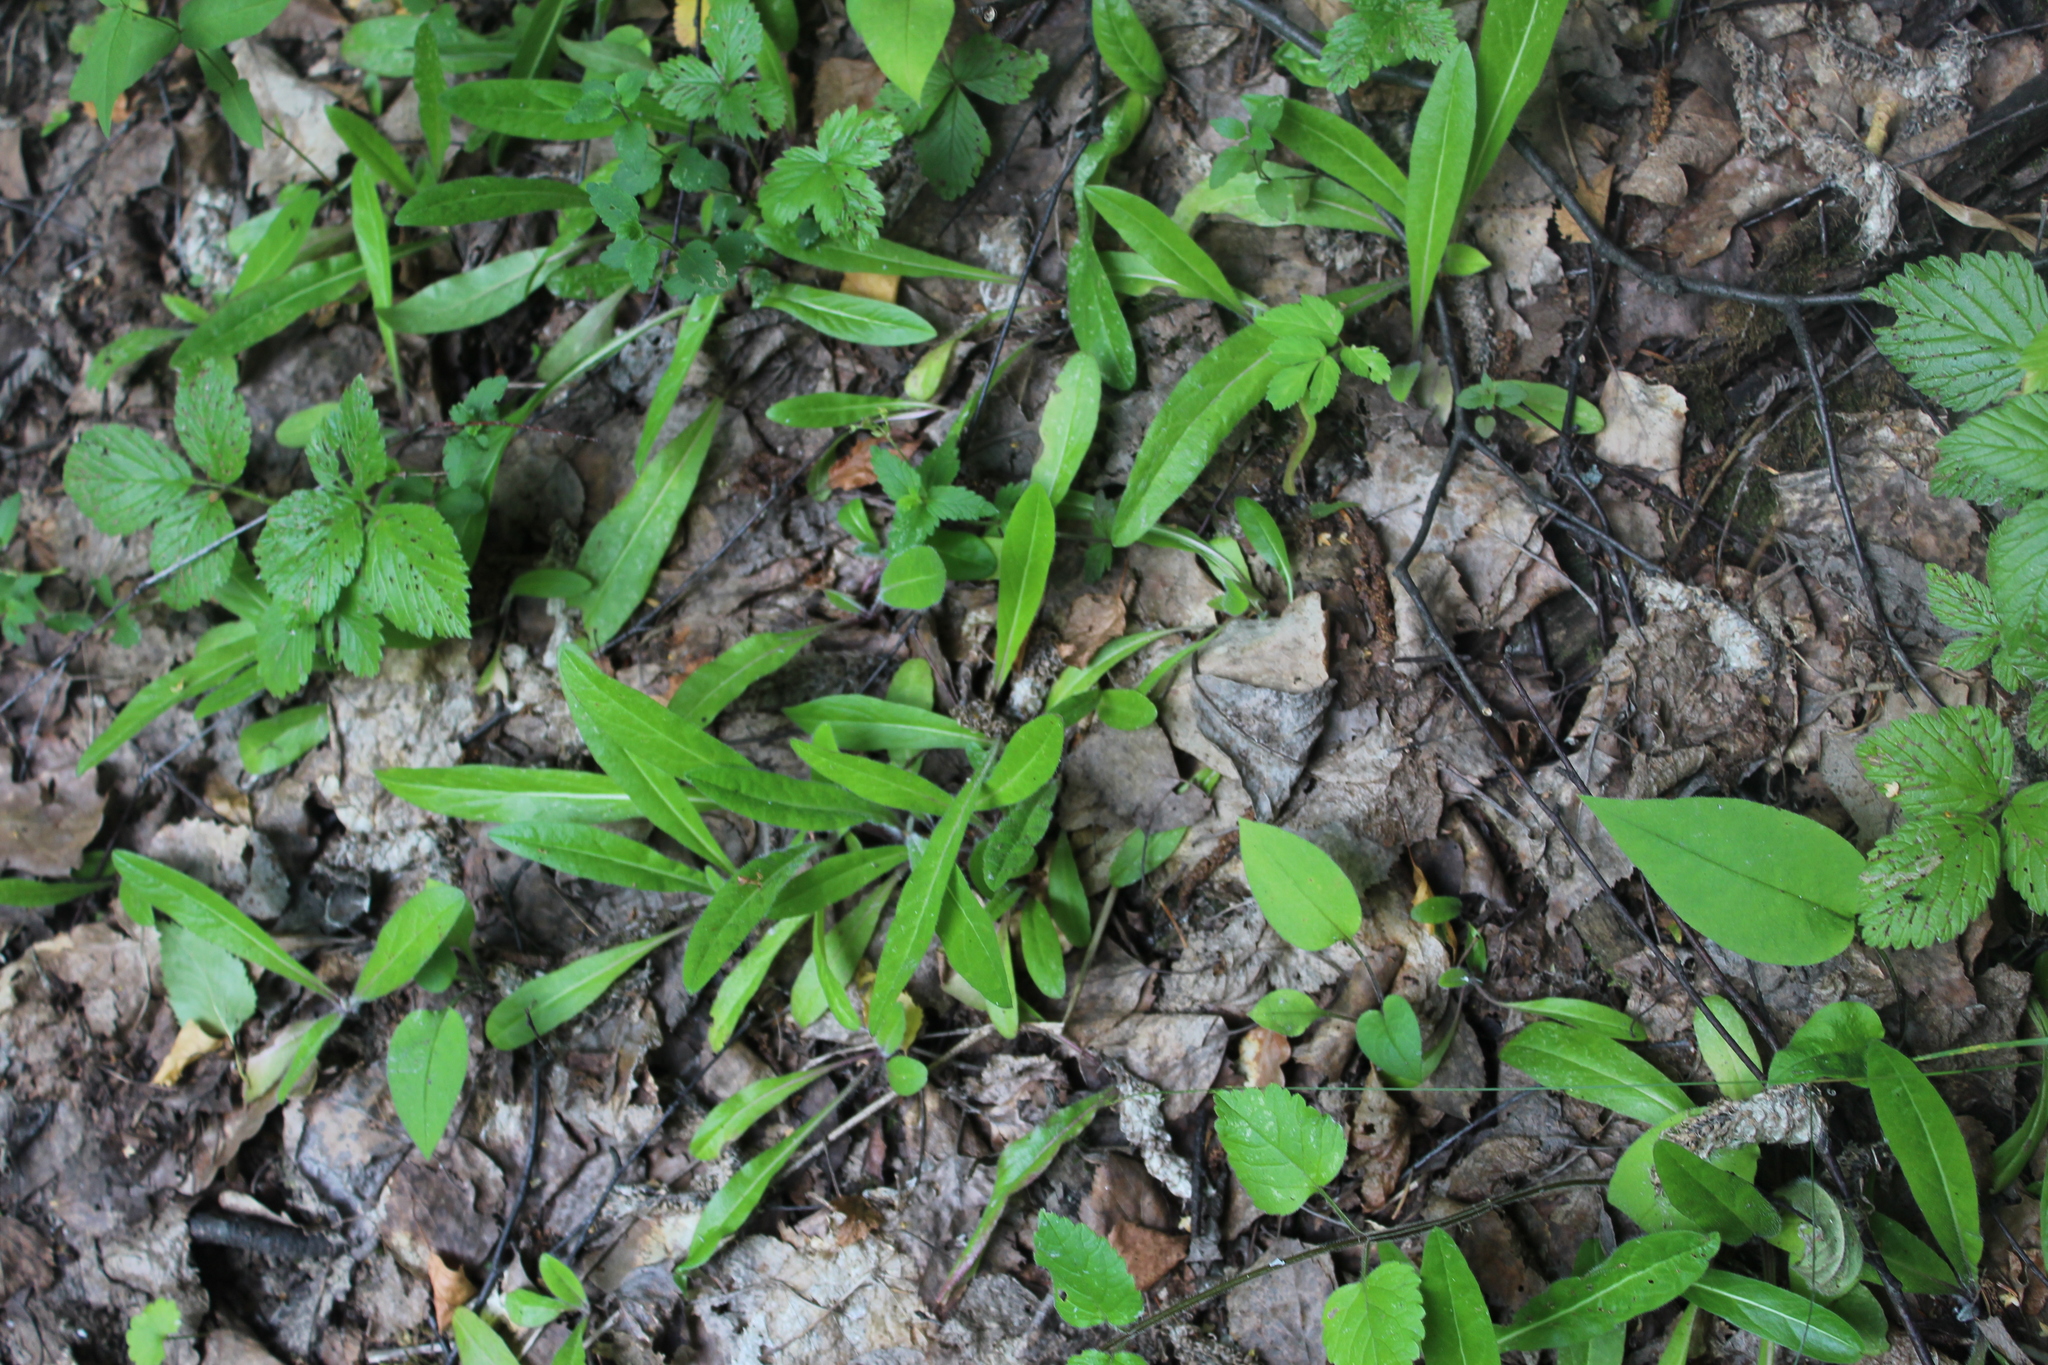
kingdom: Plantae
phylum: Tracheophyta
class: Magnoliopsida
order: Asterales
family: Asteraceae
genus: Pilosella
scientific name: Pilosella
